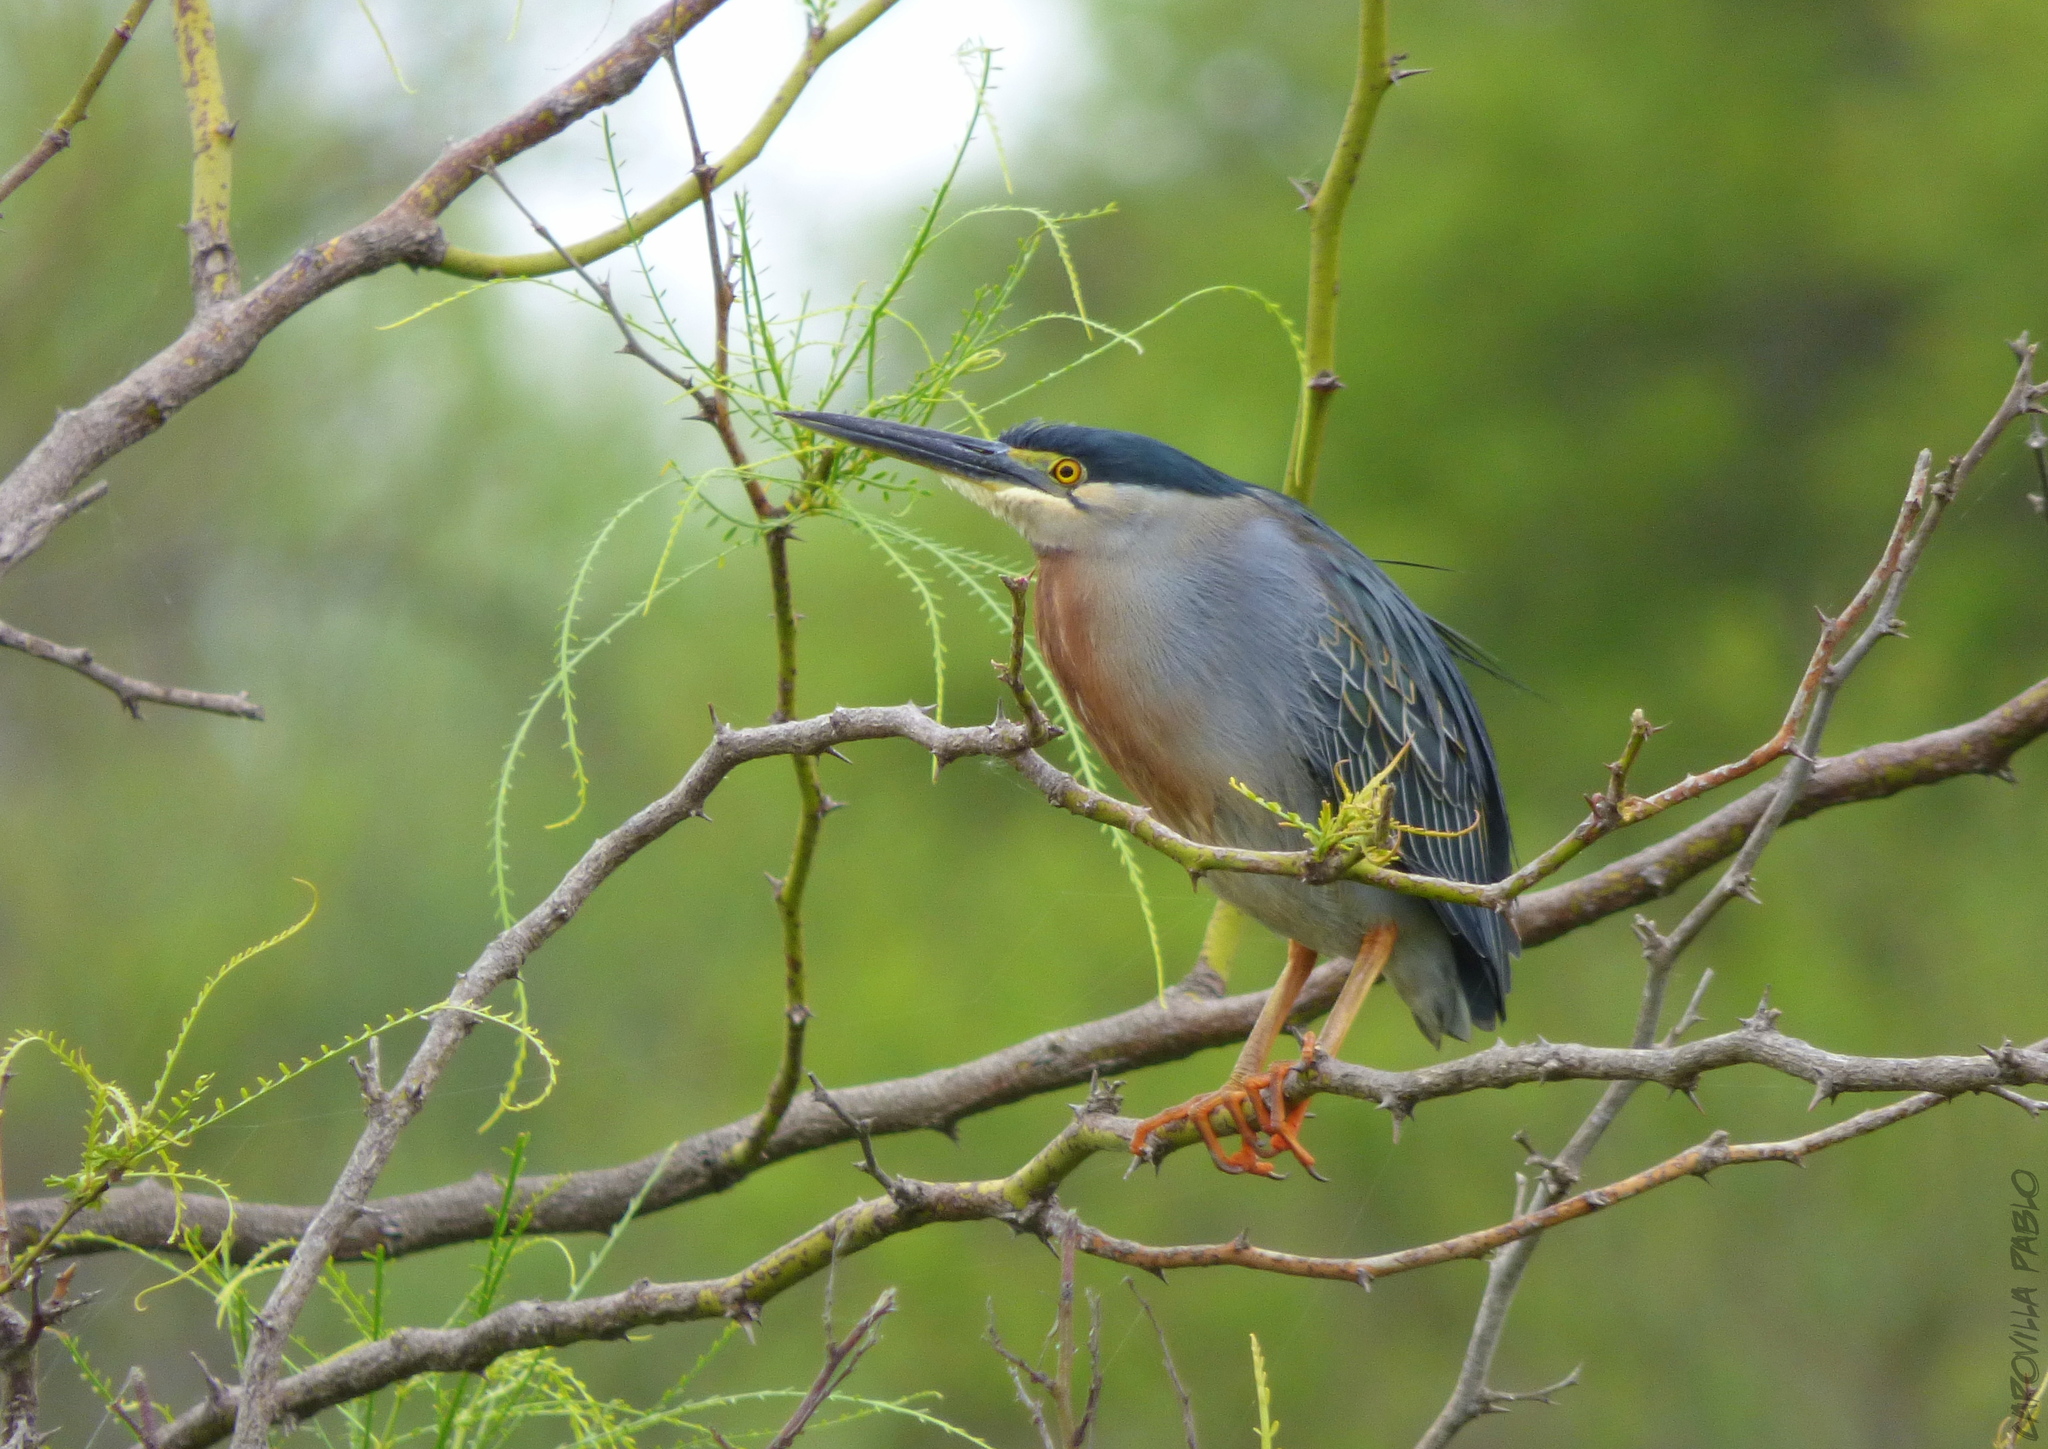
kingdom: Animalia
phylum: Chordata
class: Aves
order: Pelecaniformes
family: Ardeidae
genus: Butorides
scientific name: Butorides striata
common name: Striated heron
